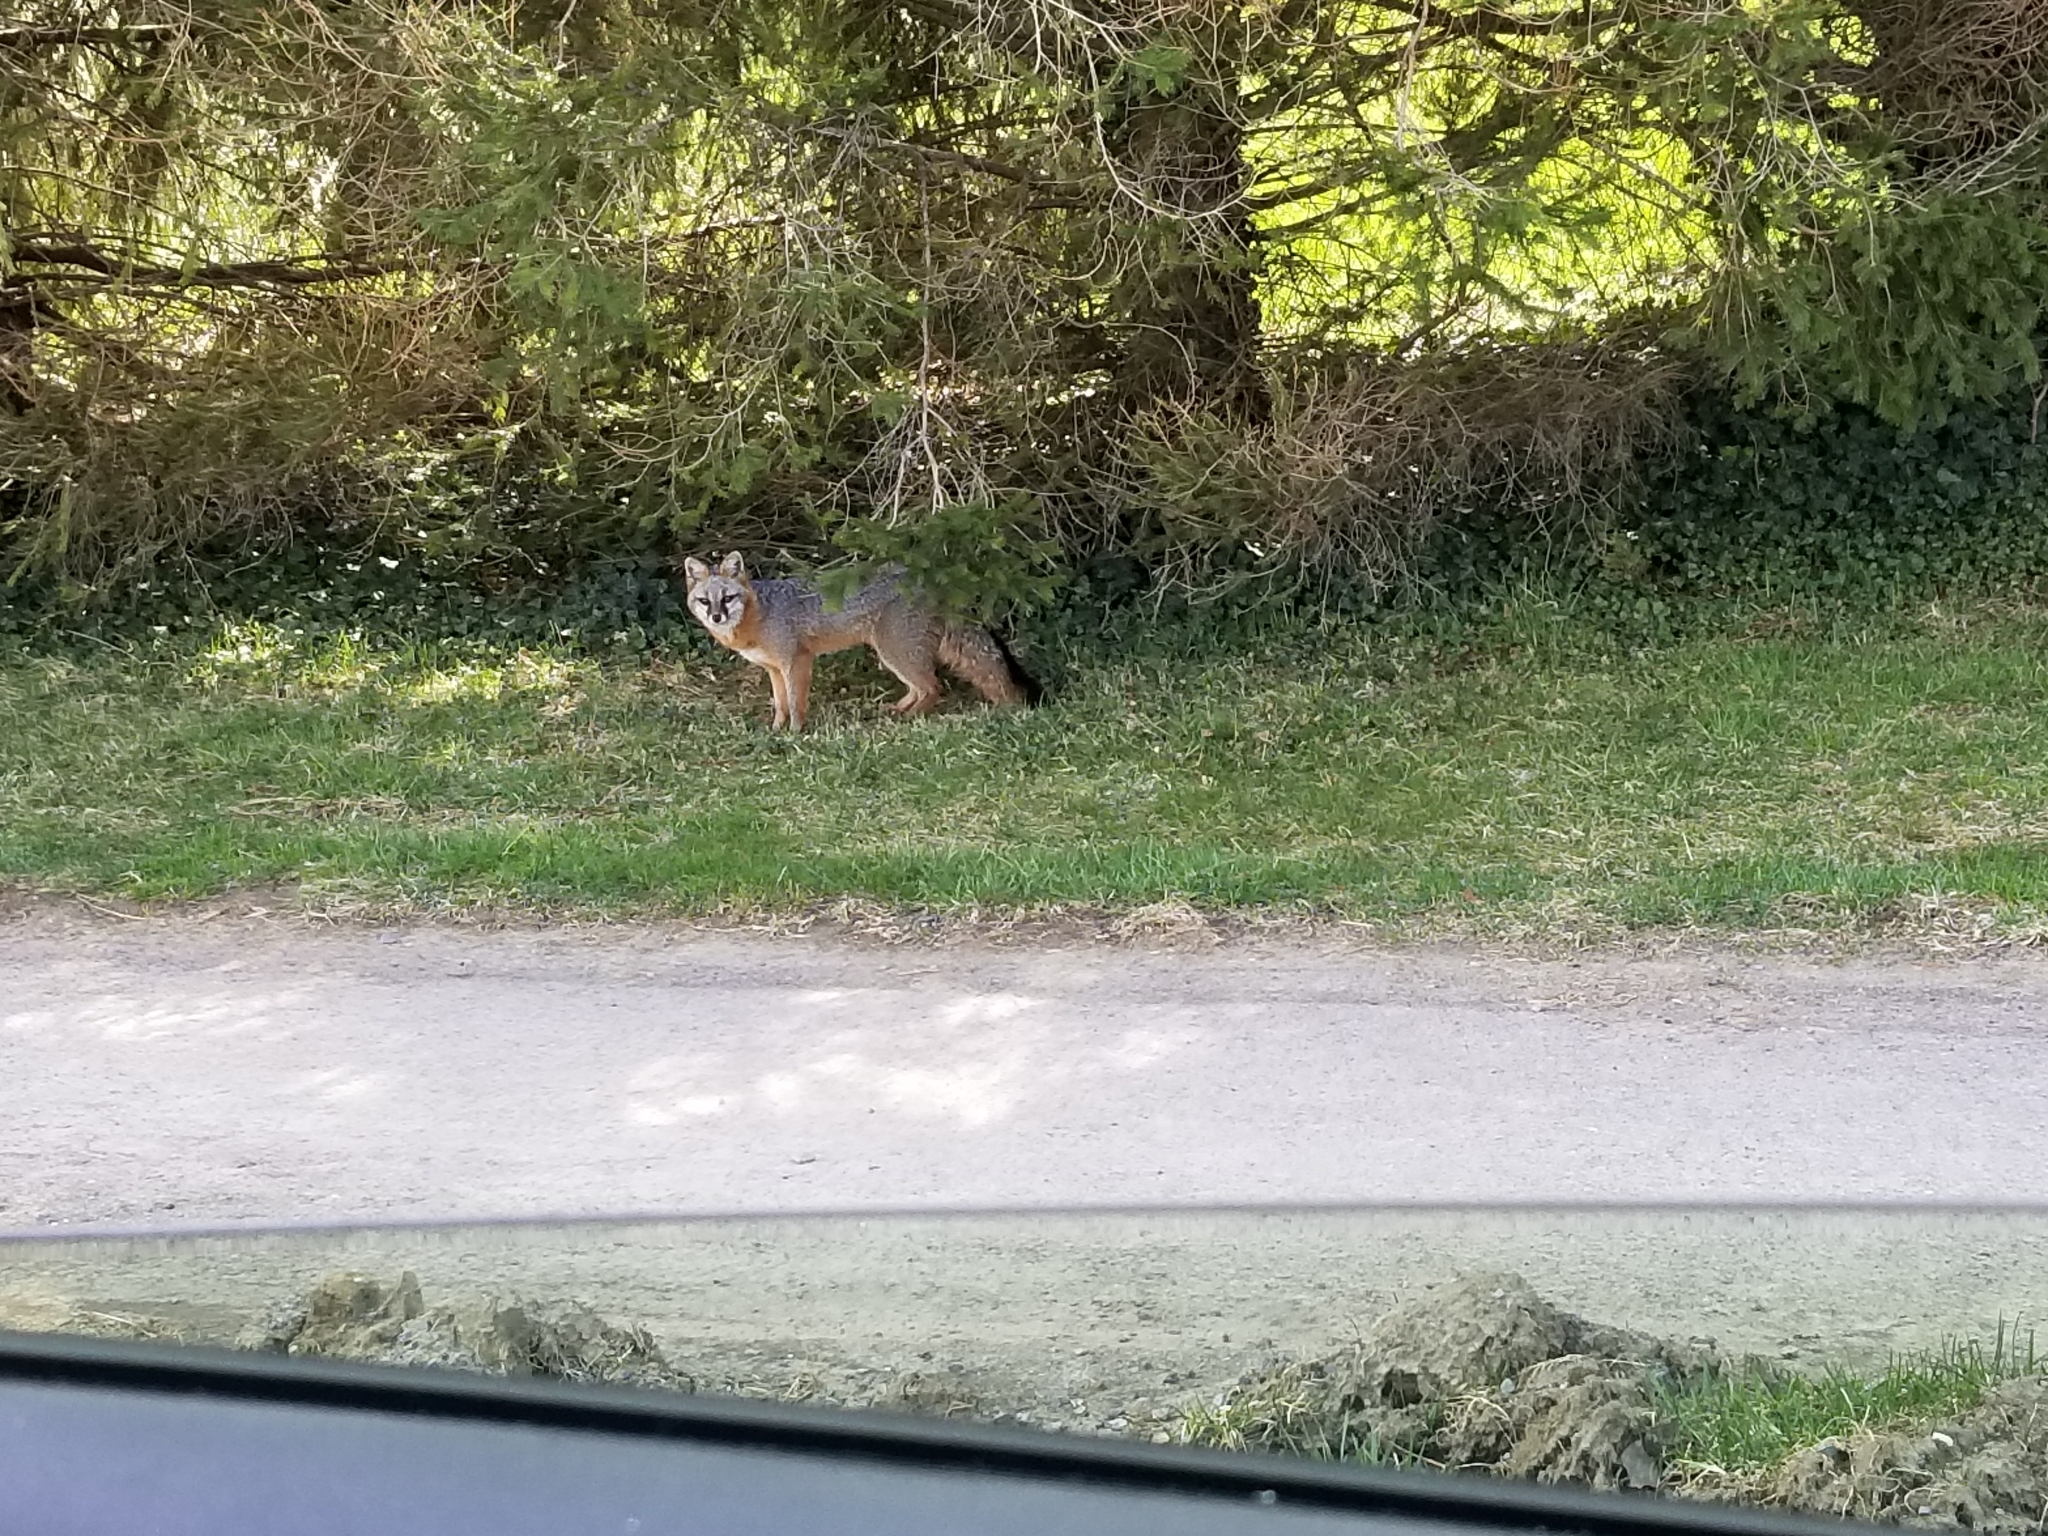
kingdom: Animalia
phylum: Chordata
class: Mammalia
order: Carnivora
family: Canidae
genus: Urocyon
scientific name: Urocyon cinereoargenteus
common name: Gray fox
